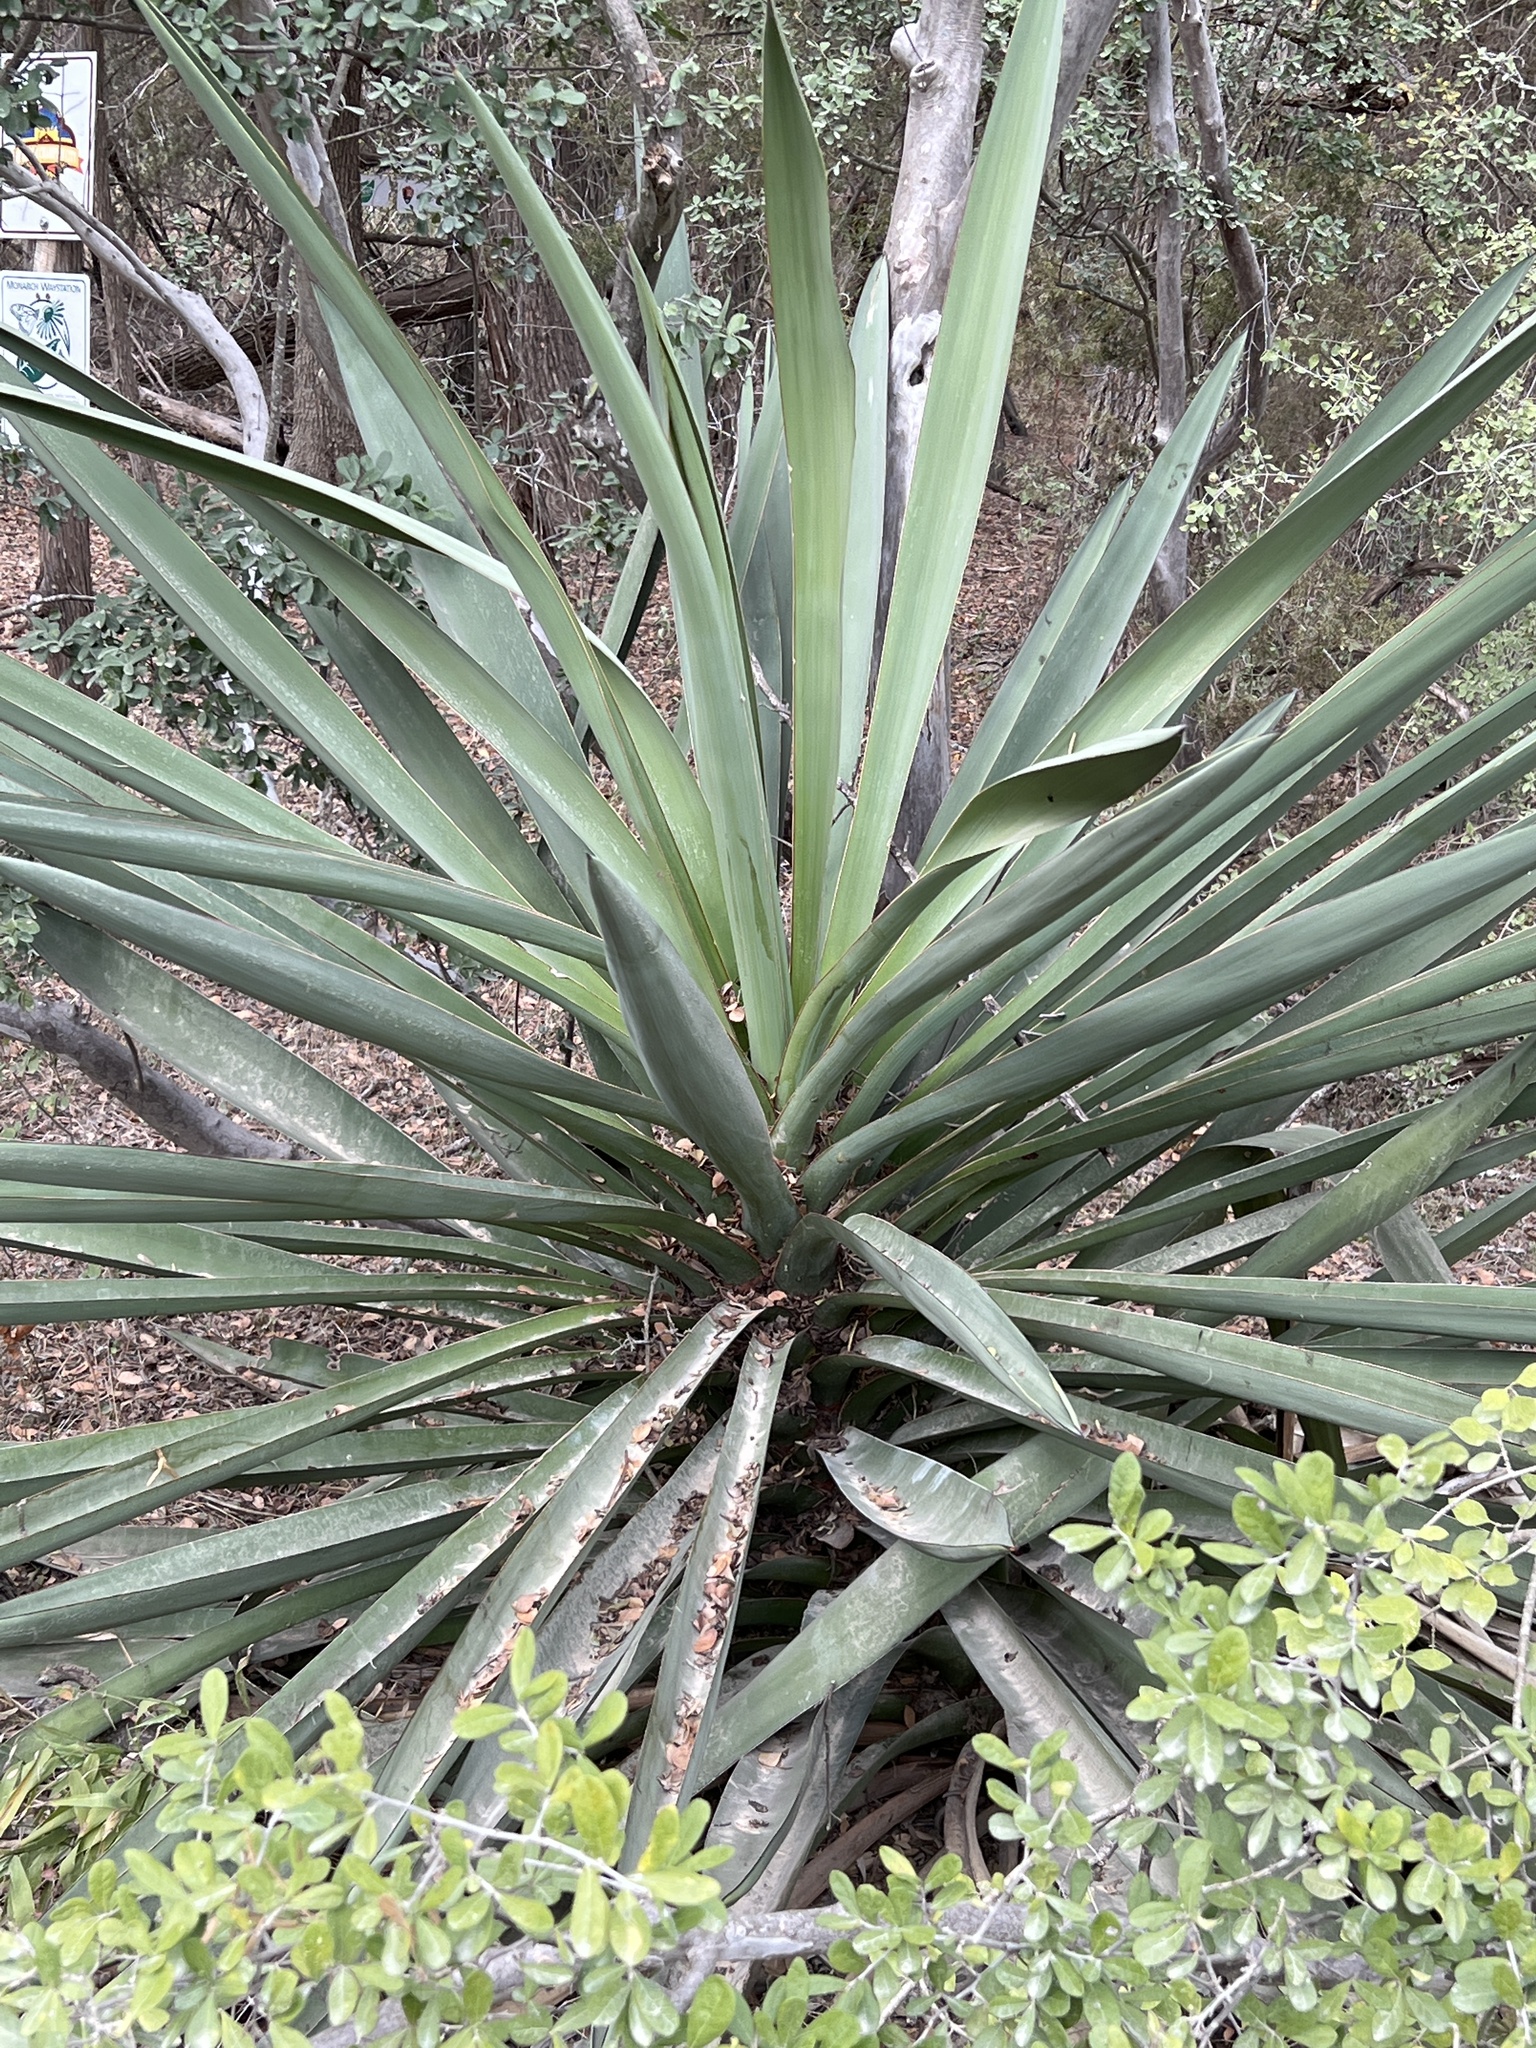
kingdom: Plantae
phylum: Tracheophyta
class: Liliopsida
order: Asparagales
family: Asparagaceae
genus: Yucca
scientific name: Yucca treculiana
